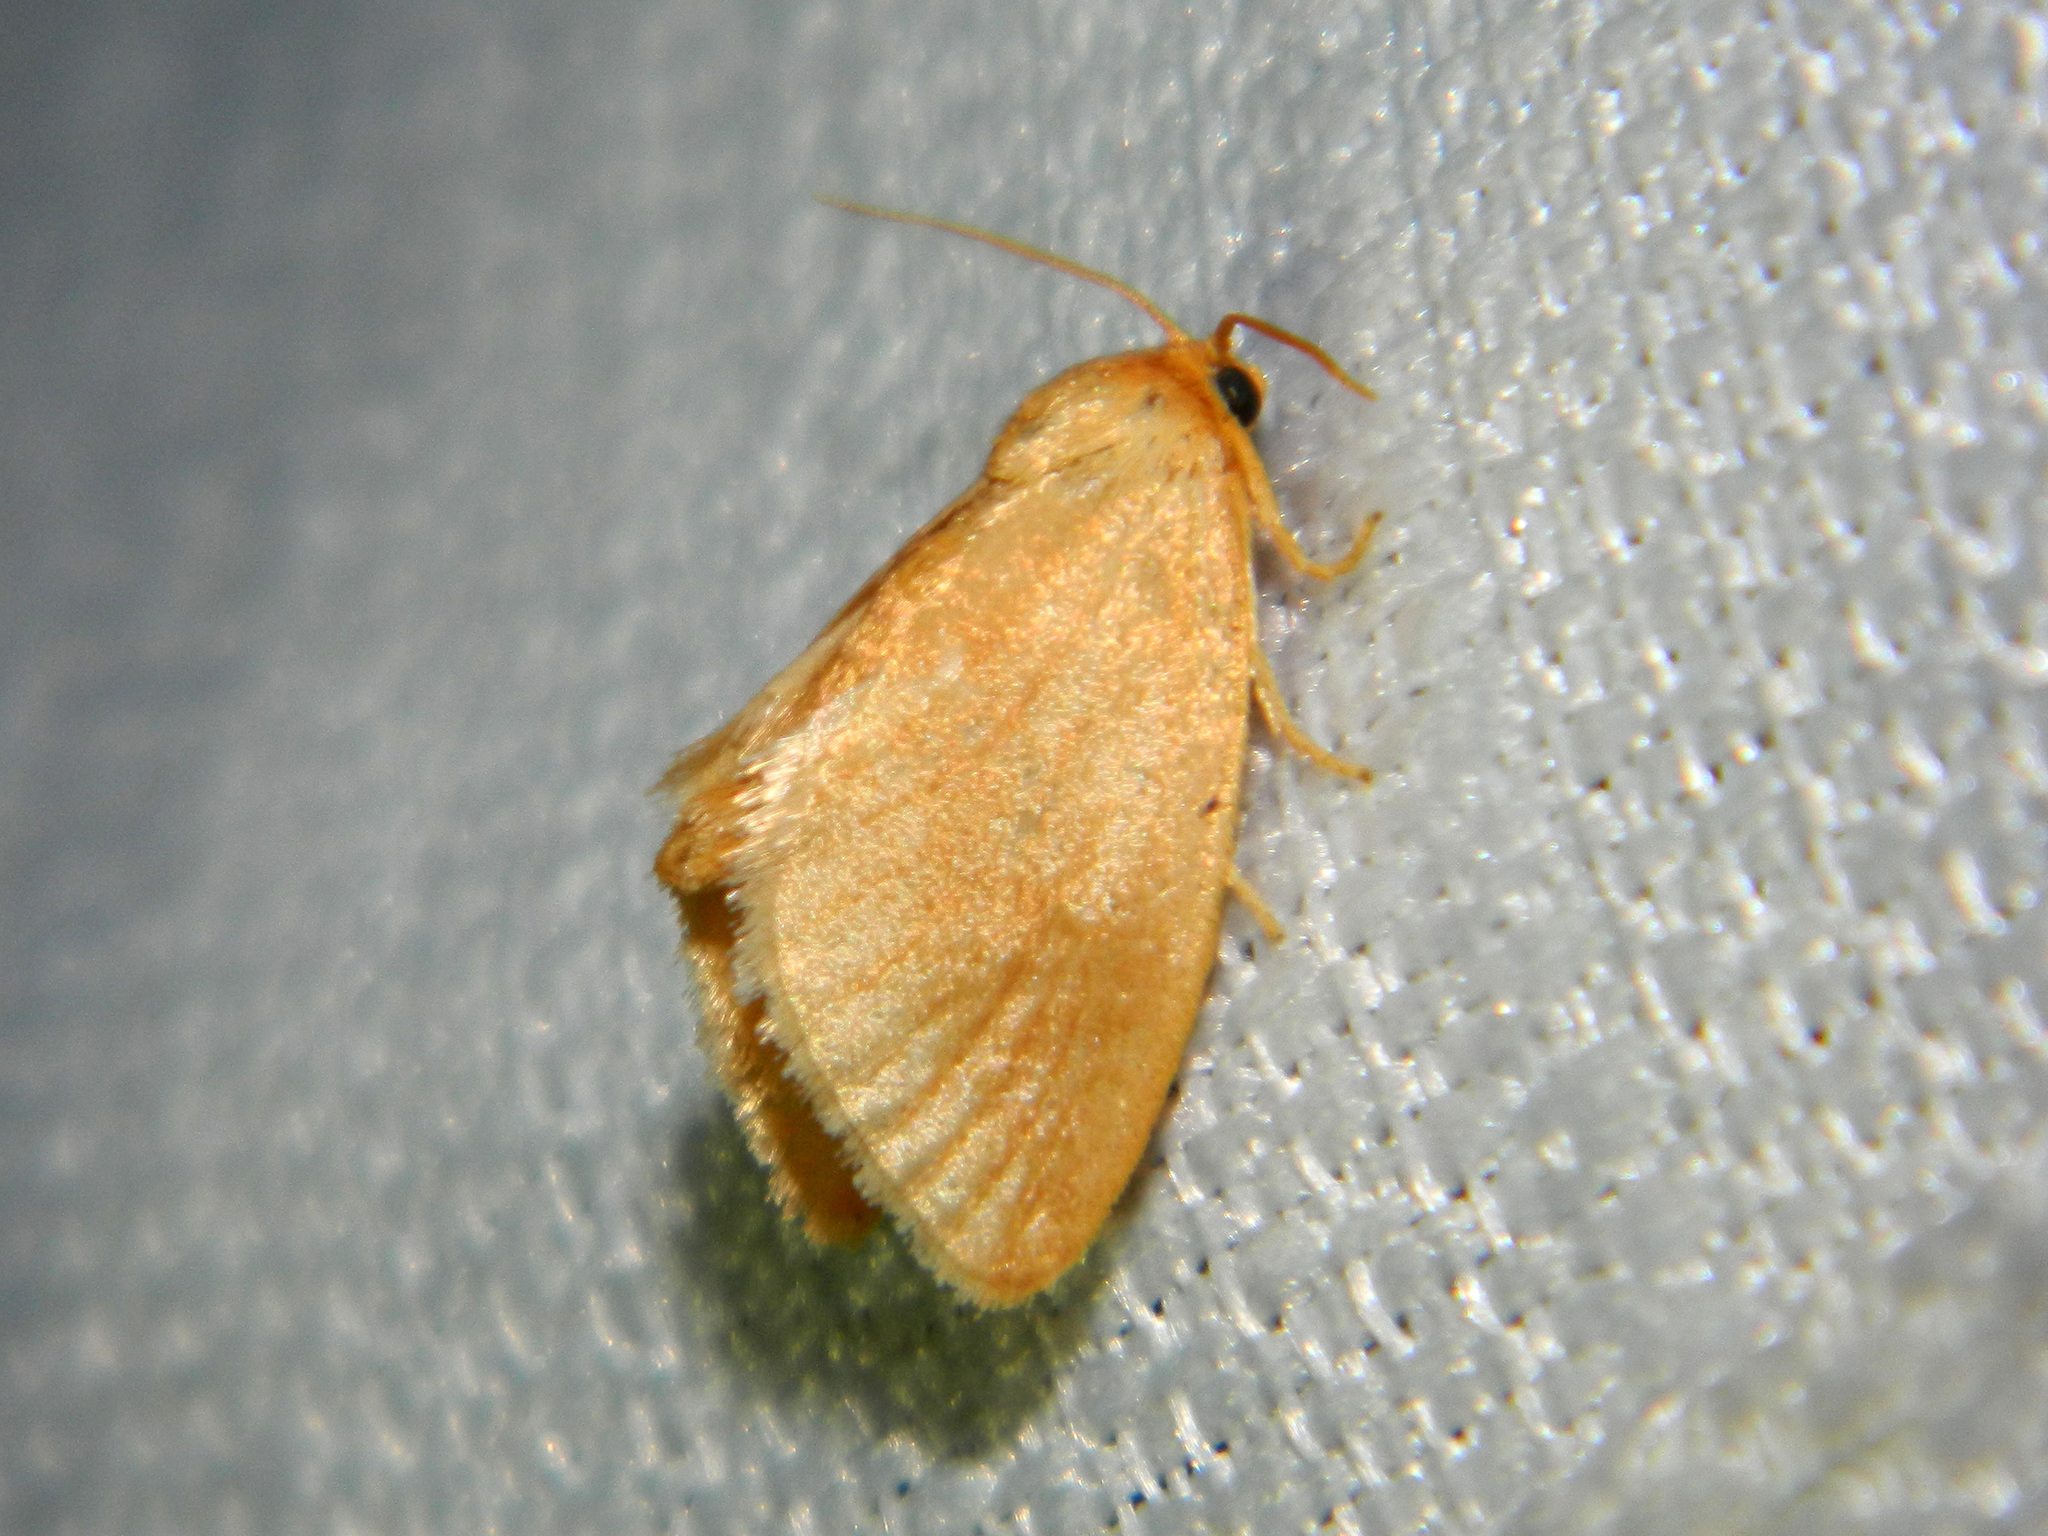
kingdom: Animalia
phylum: Arthropoda
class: Insecta
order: Lepidoptera
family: Limacodidae
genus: Tortricidia
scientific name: Tortricidia testacea
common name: Early button slug moth
